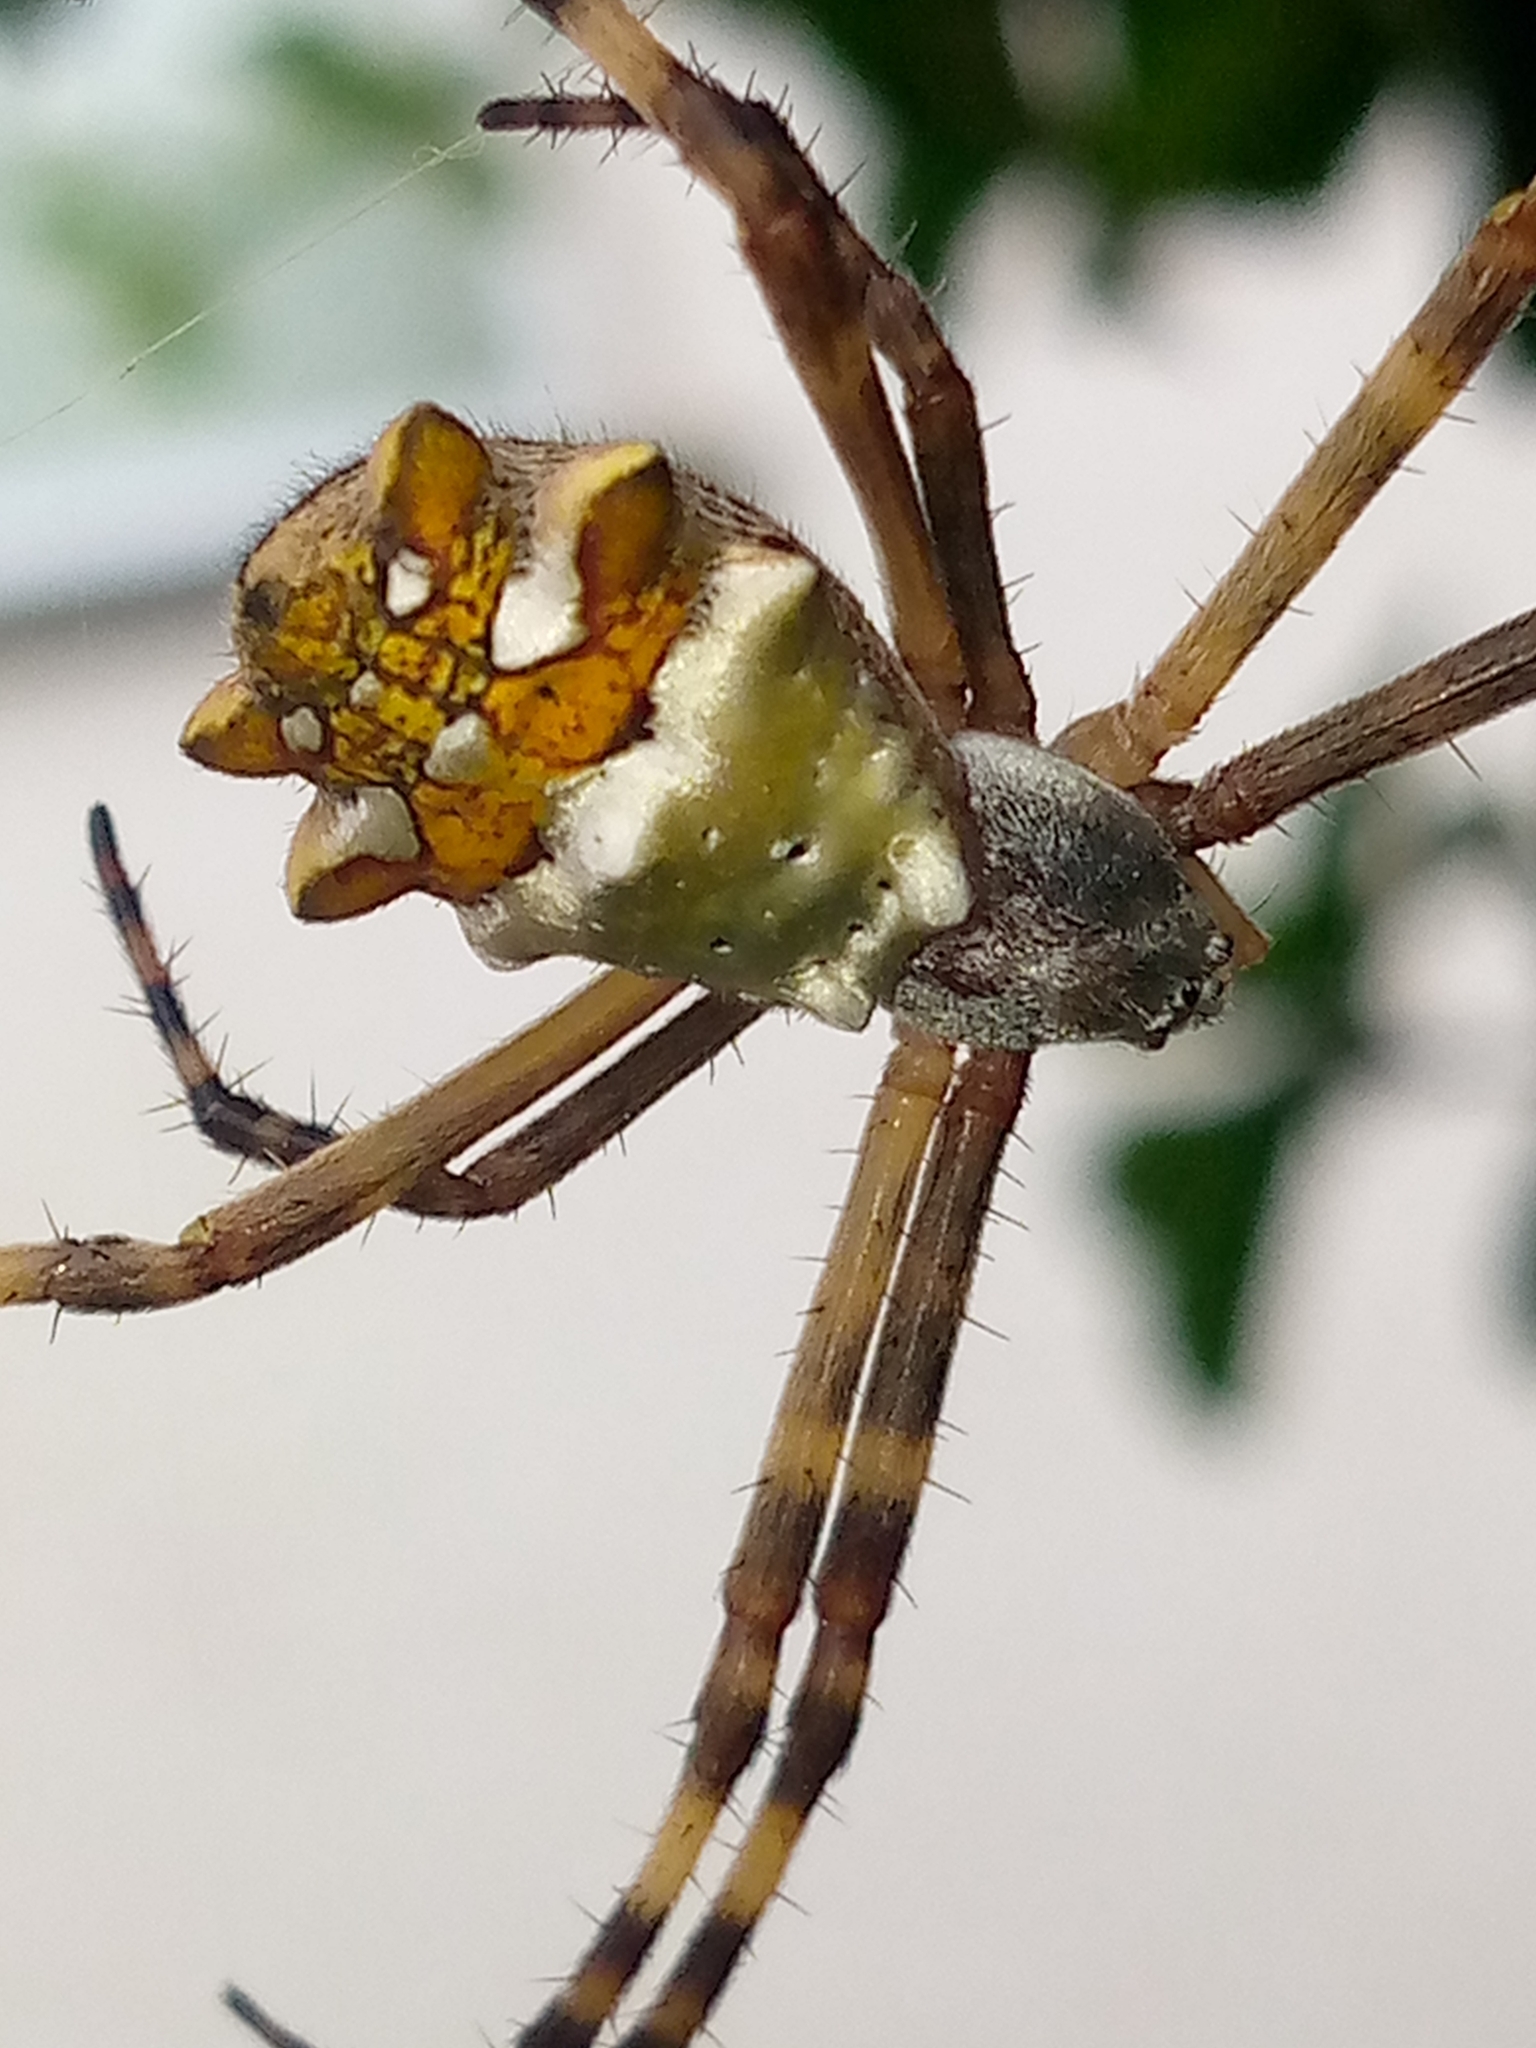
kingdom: Animalia
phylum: Arthropoda
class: Arachnida
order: Araneae
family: Araneidae
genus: Argiope
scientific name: Argiope argentata
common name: Orb weavers
